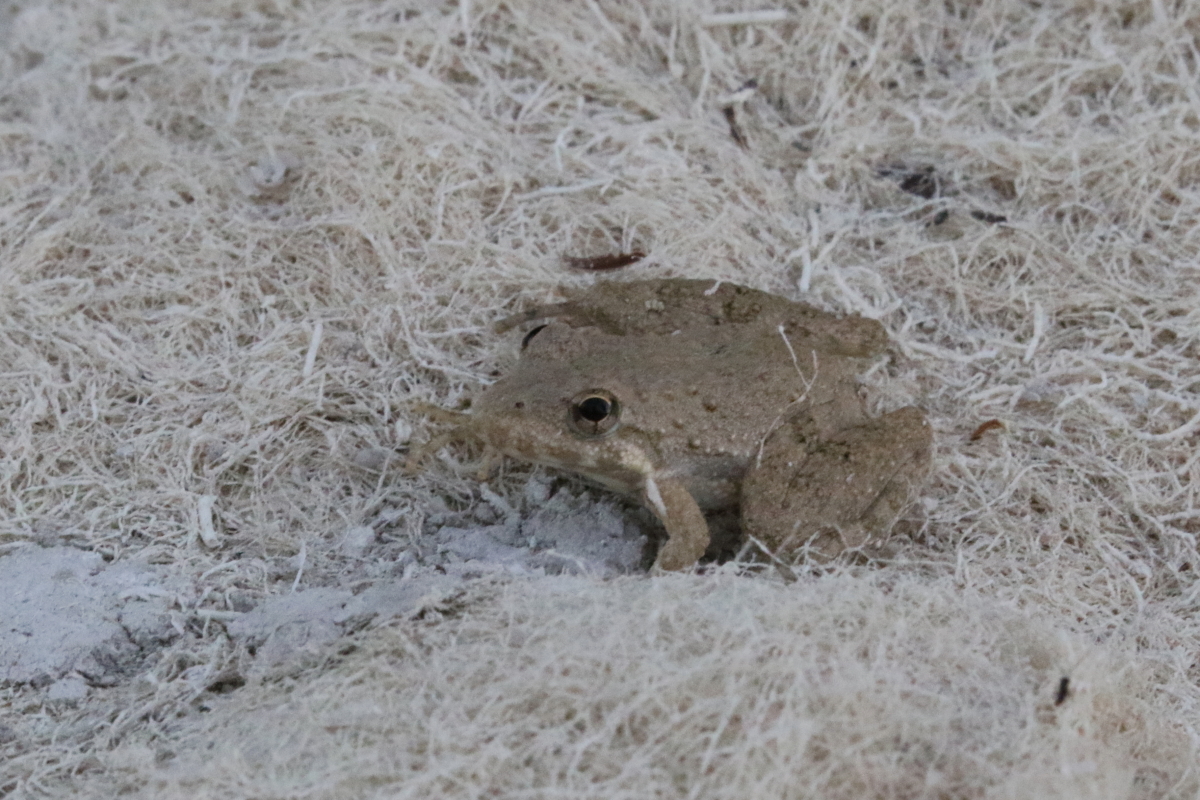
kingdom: Animalia
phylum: Chordata
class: Amphibia
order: Anura
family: Hylidae
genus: Acris
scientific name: Acris blanchardi
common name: Blanchard's cricket frog
